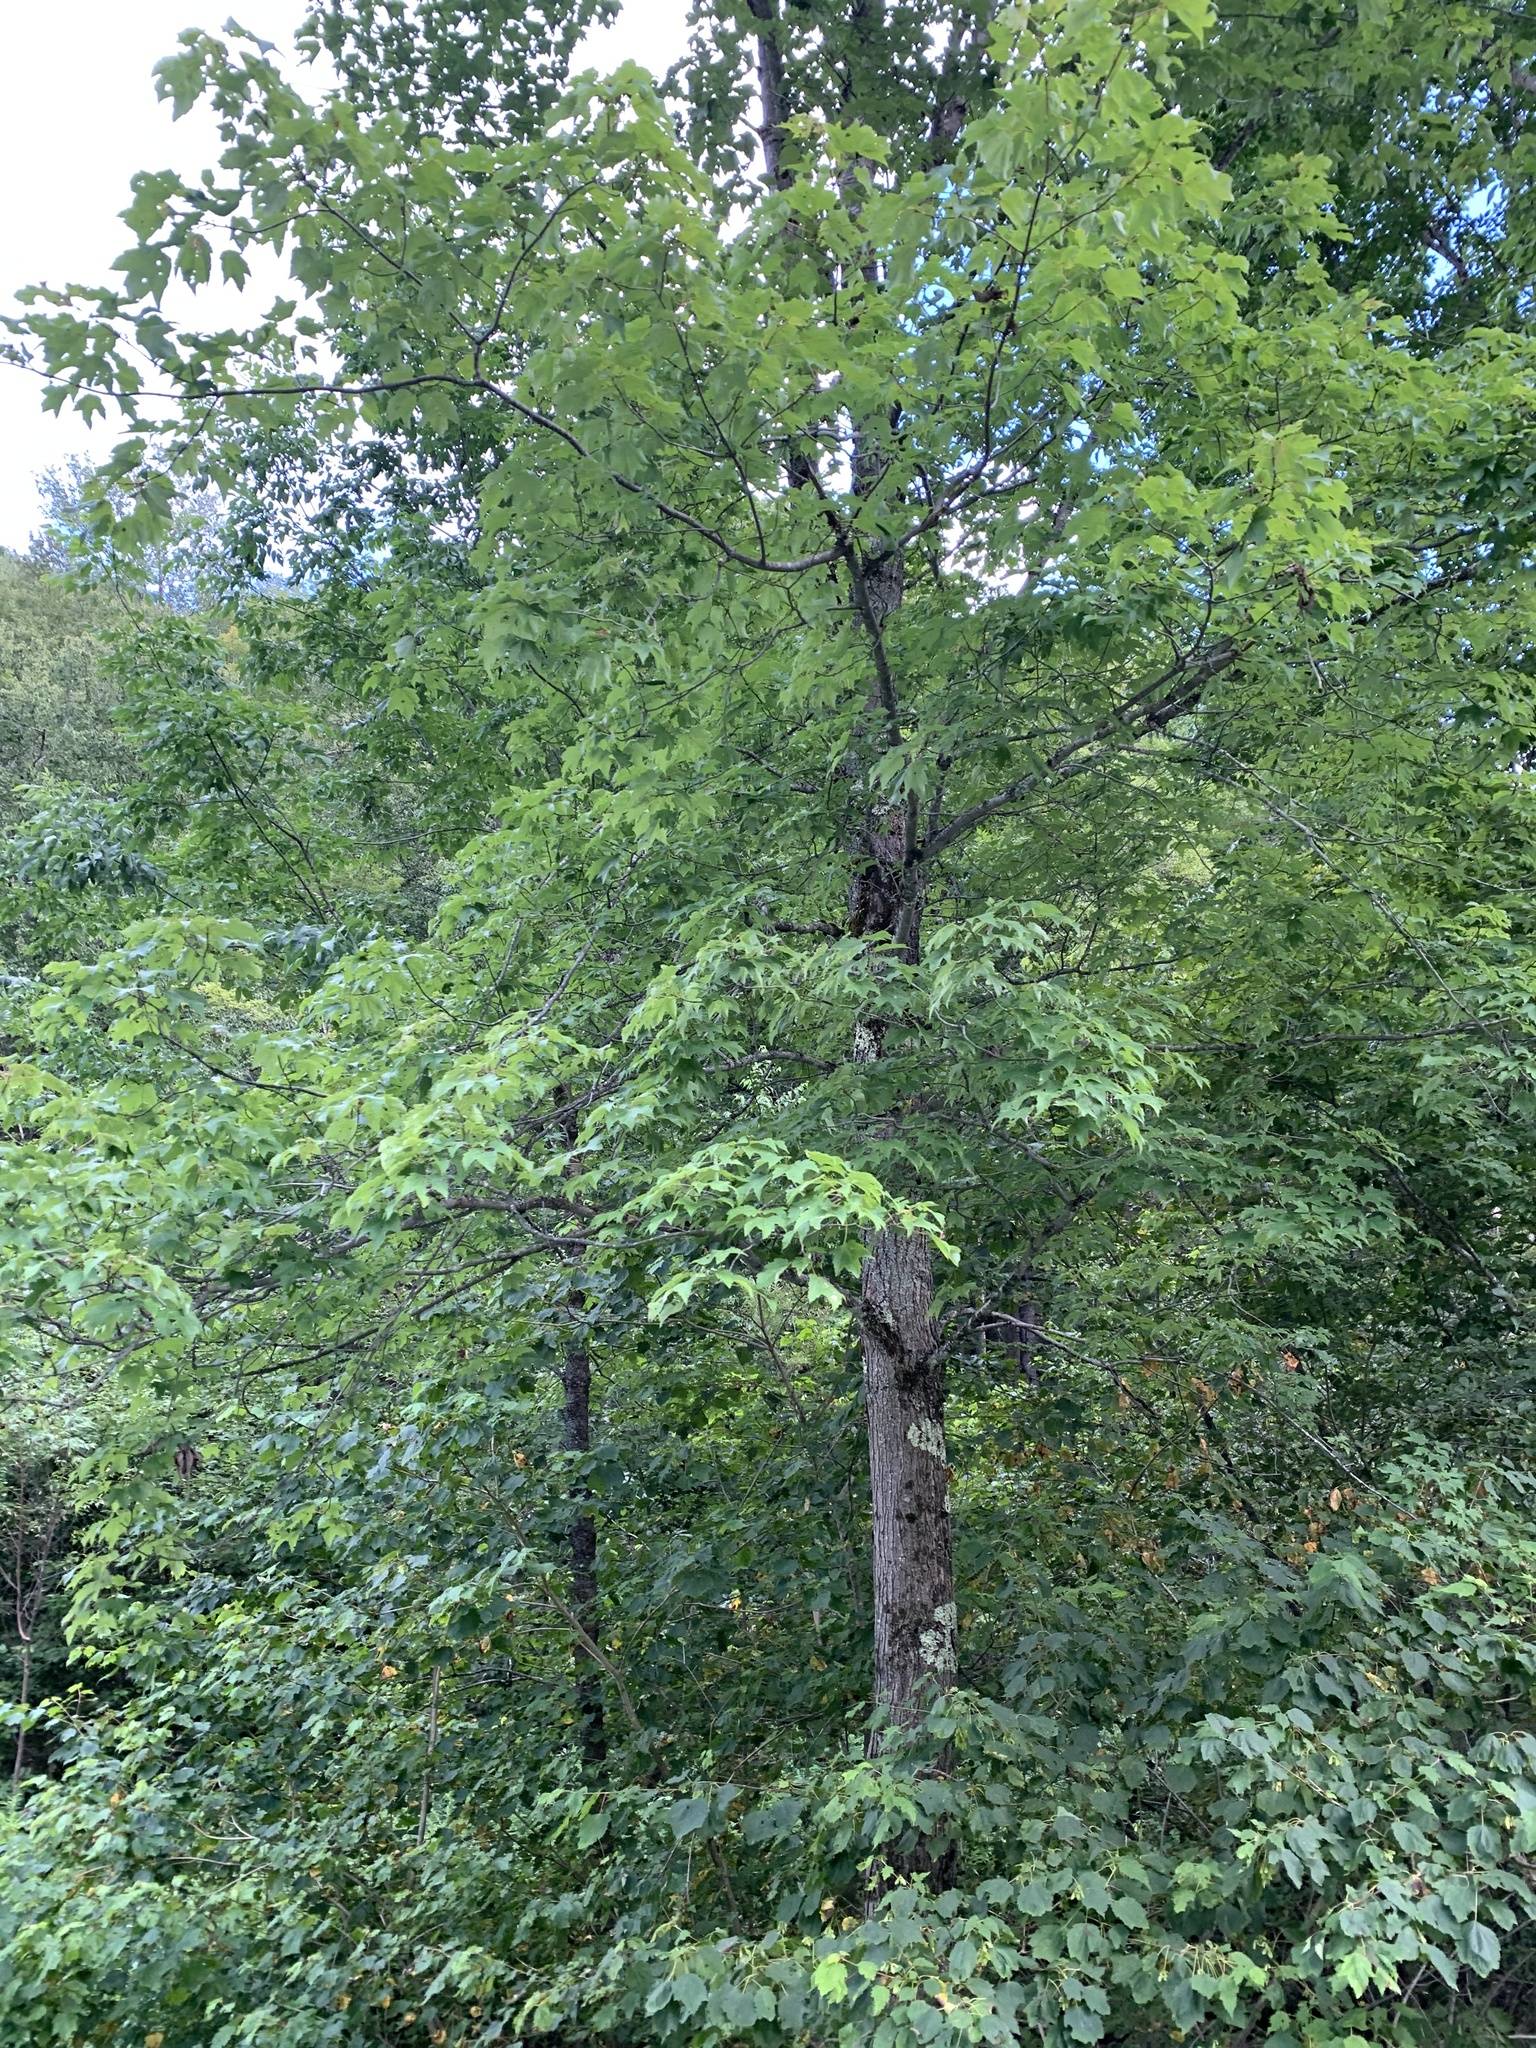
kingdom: Plantae
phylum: Tracheophyta
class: Magnoliopsida
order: Sapindales
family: Sapindaceae
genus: Acer
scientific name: Acer rubrum
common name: Red maple
